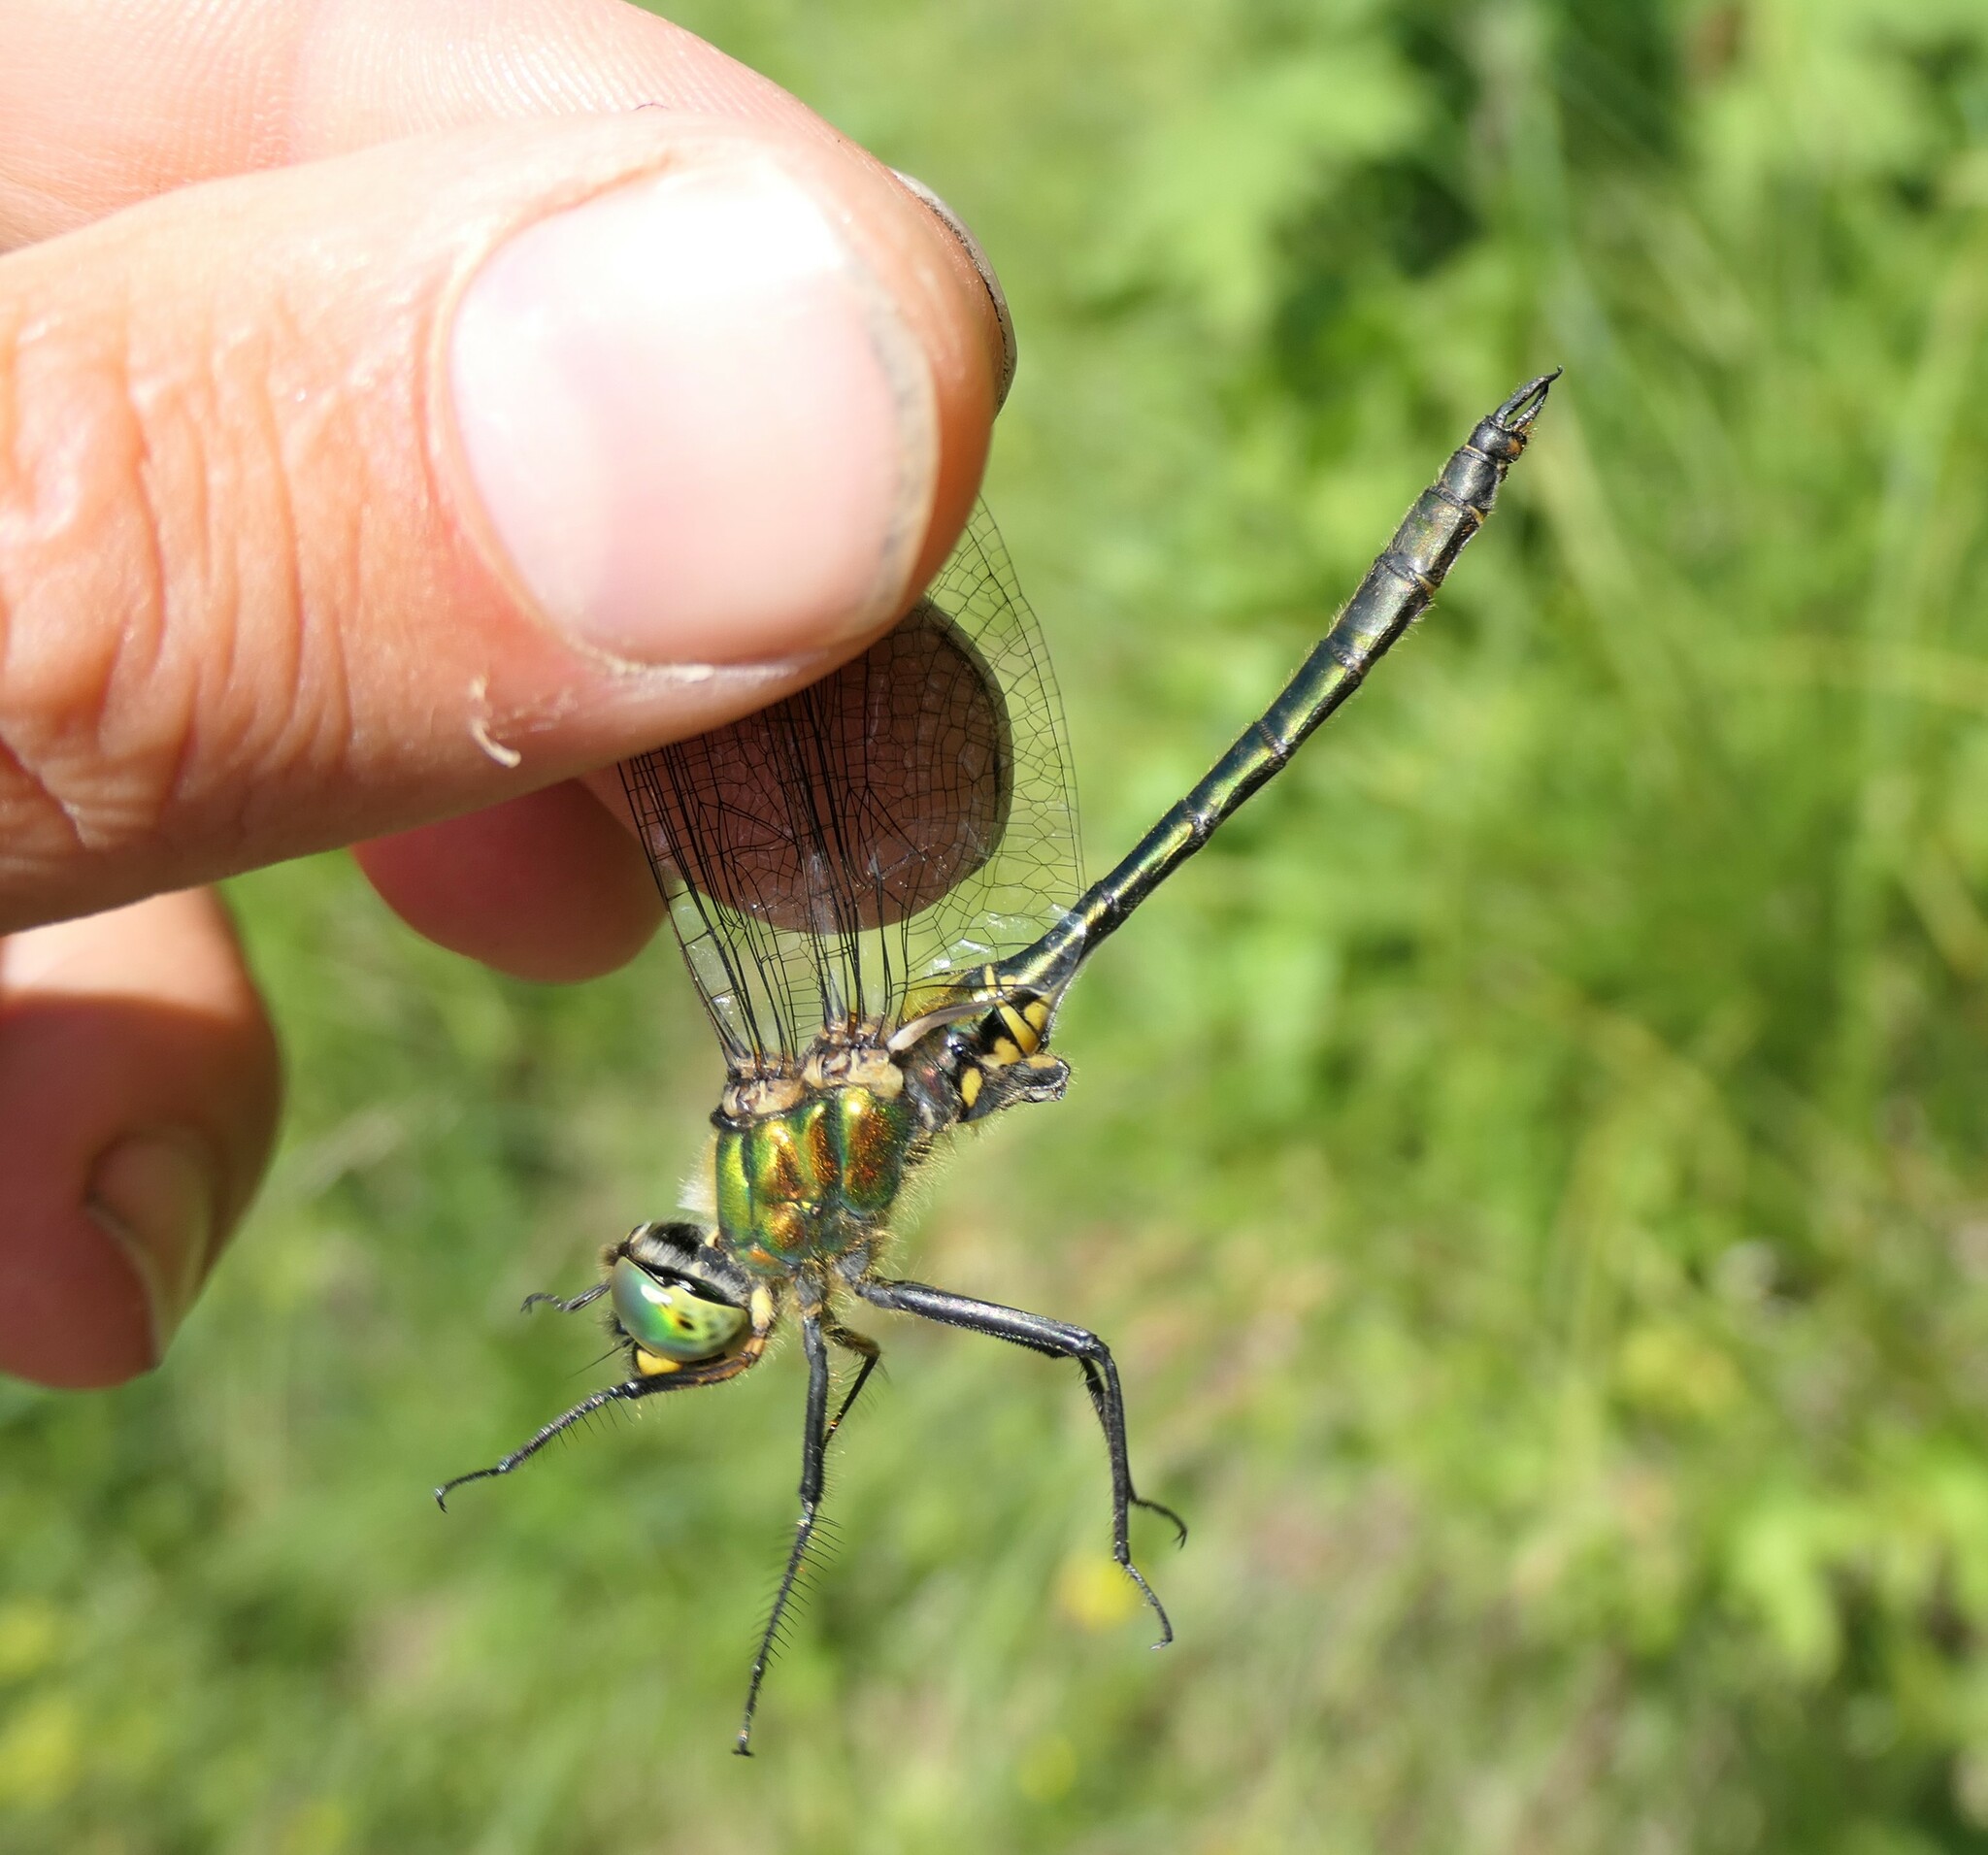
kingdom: Animalia
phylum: Arthropoda
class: Insecta
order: Odonata
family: Corduliidae
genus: Somatochlora
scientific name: Somatochlora metallica
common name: Brilliant emerald
